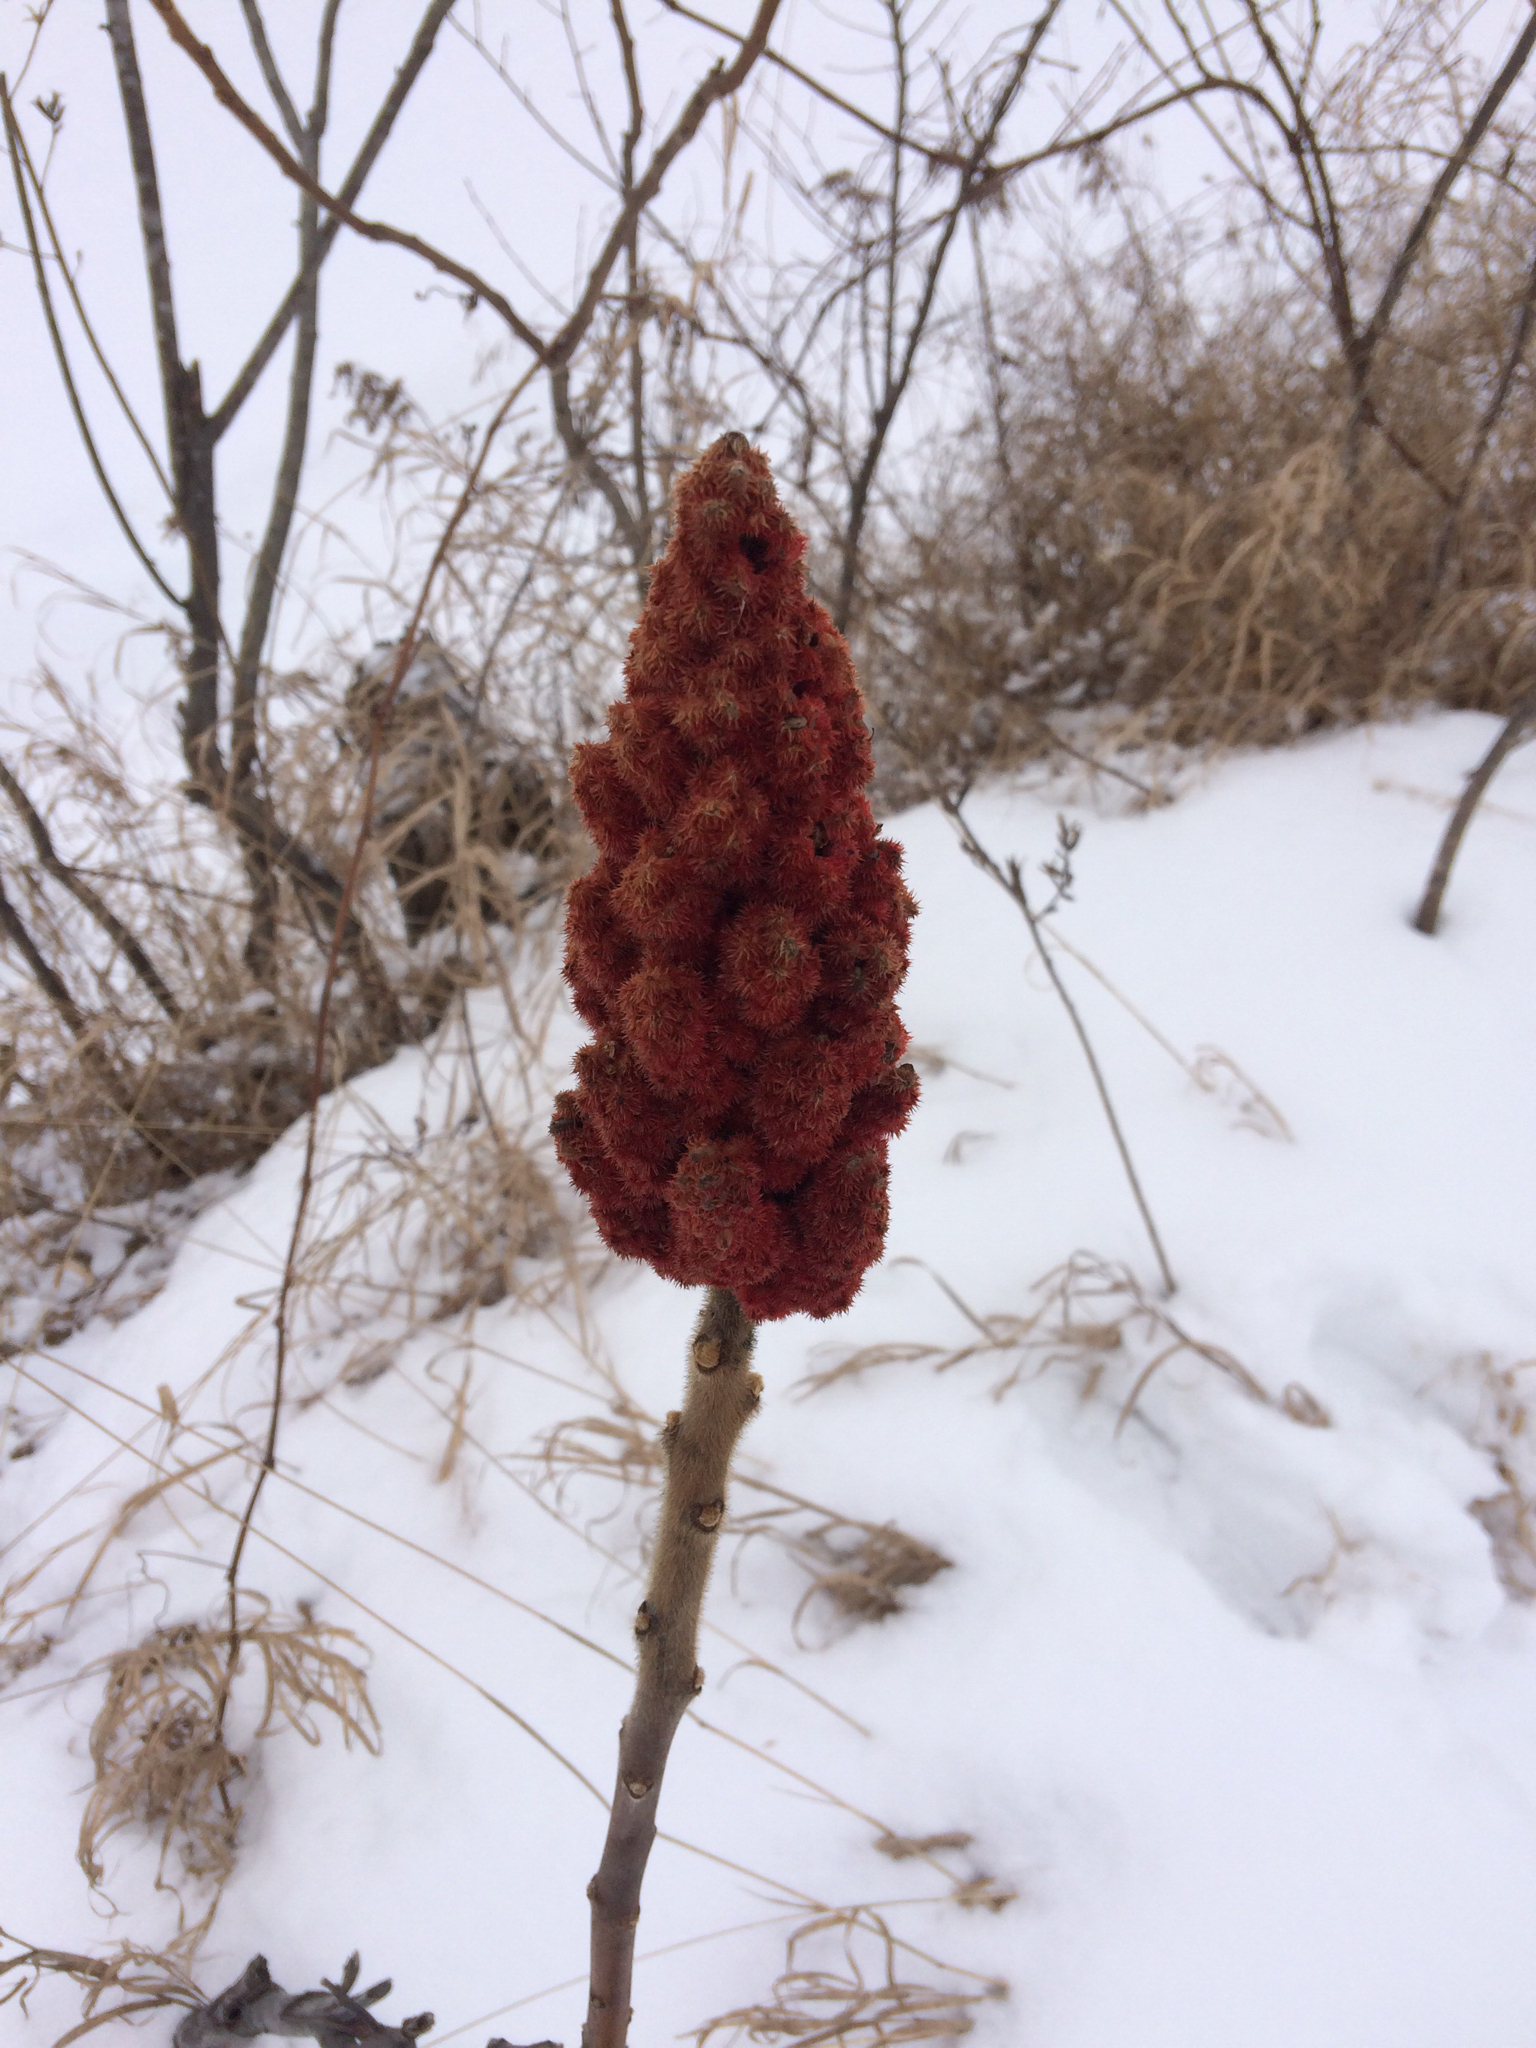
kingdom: Plantae
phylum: Tracheophyta
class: Magnoliopsida
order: Sapindales
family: Anacardiaceae
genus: Rhus
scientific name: Rhus typhina
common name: Staghorn sumac
